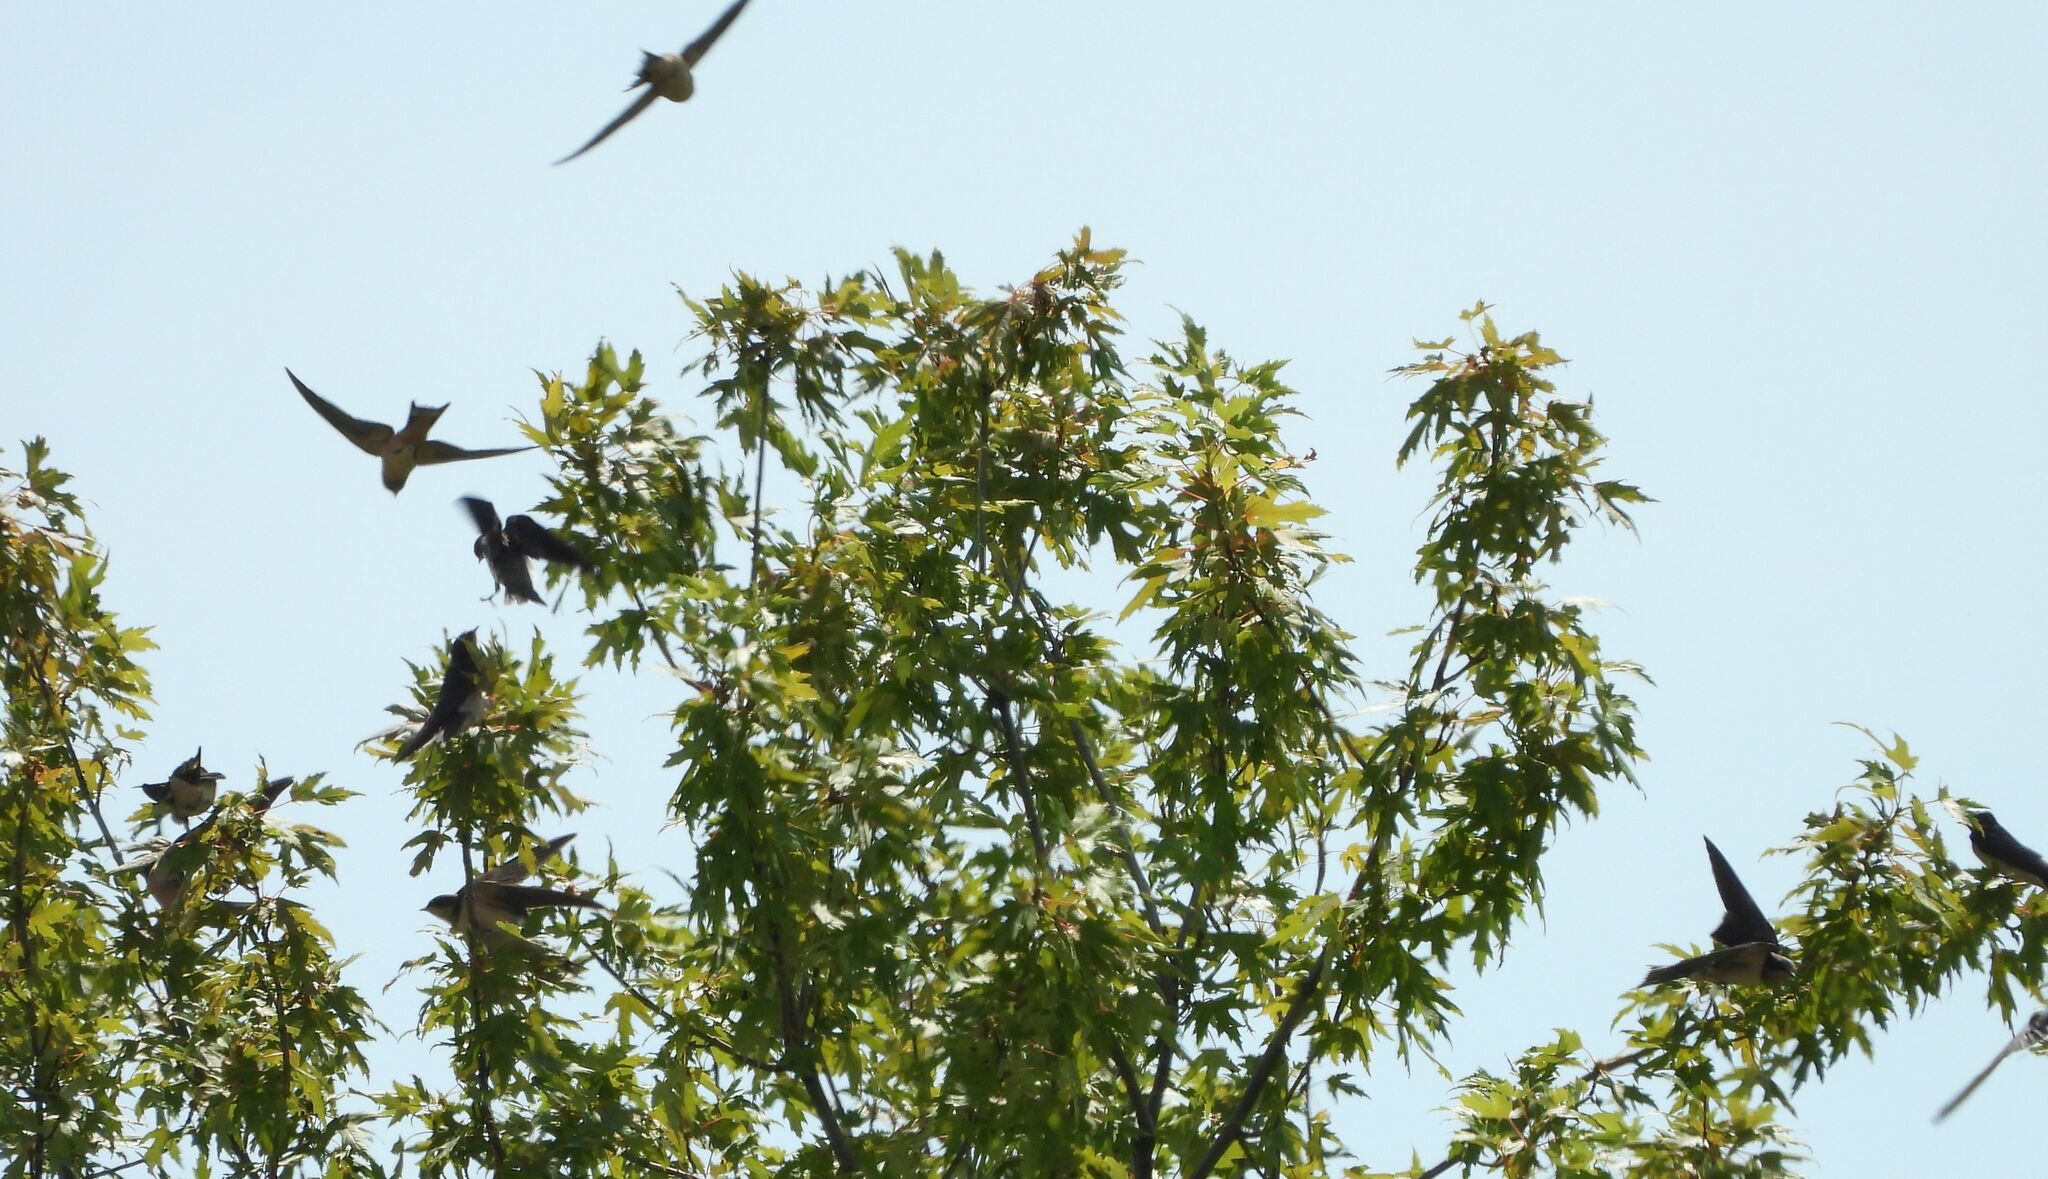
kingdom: Animalia
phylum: Chordata
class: Aves
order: Passeriformes
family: Hirundinidae
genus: Hirundo
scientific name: Hirundo rustica
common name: Barn swallow
